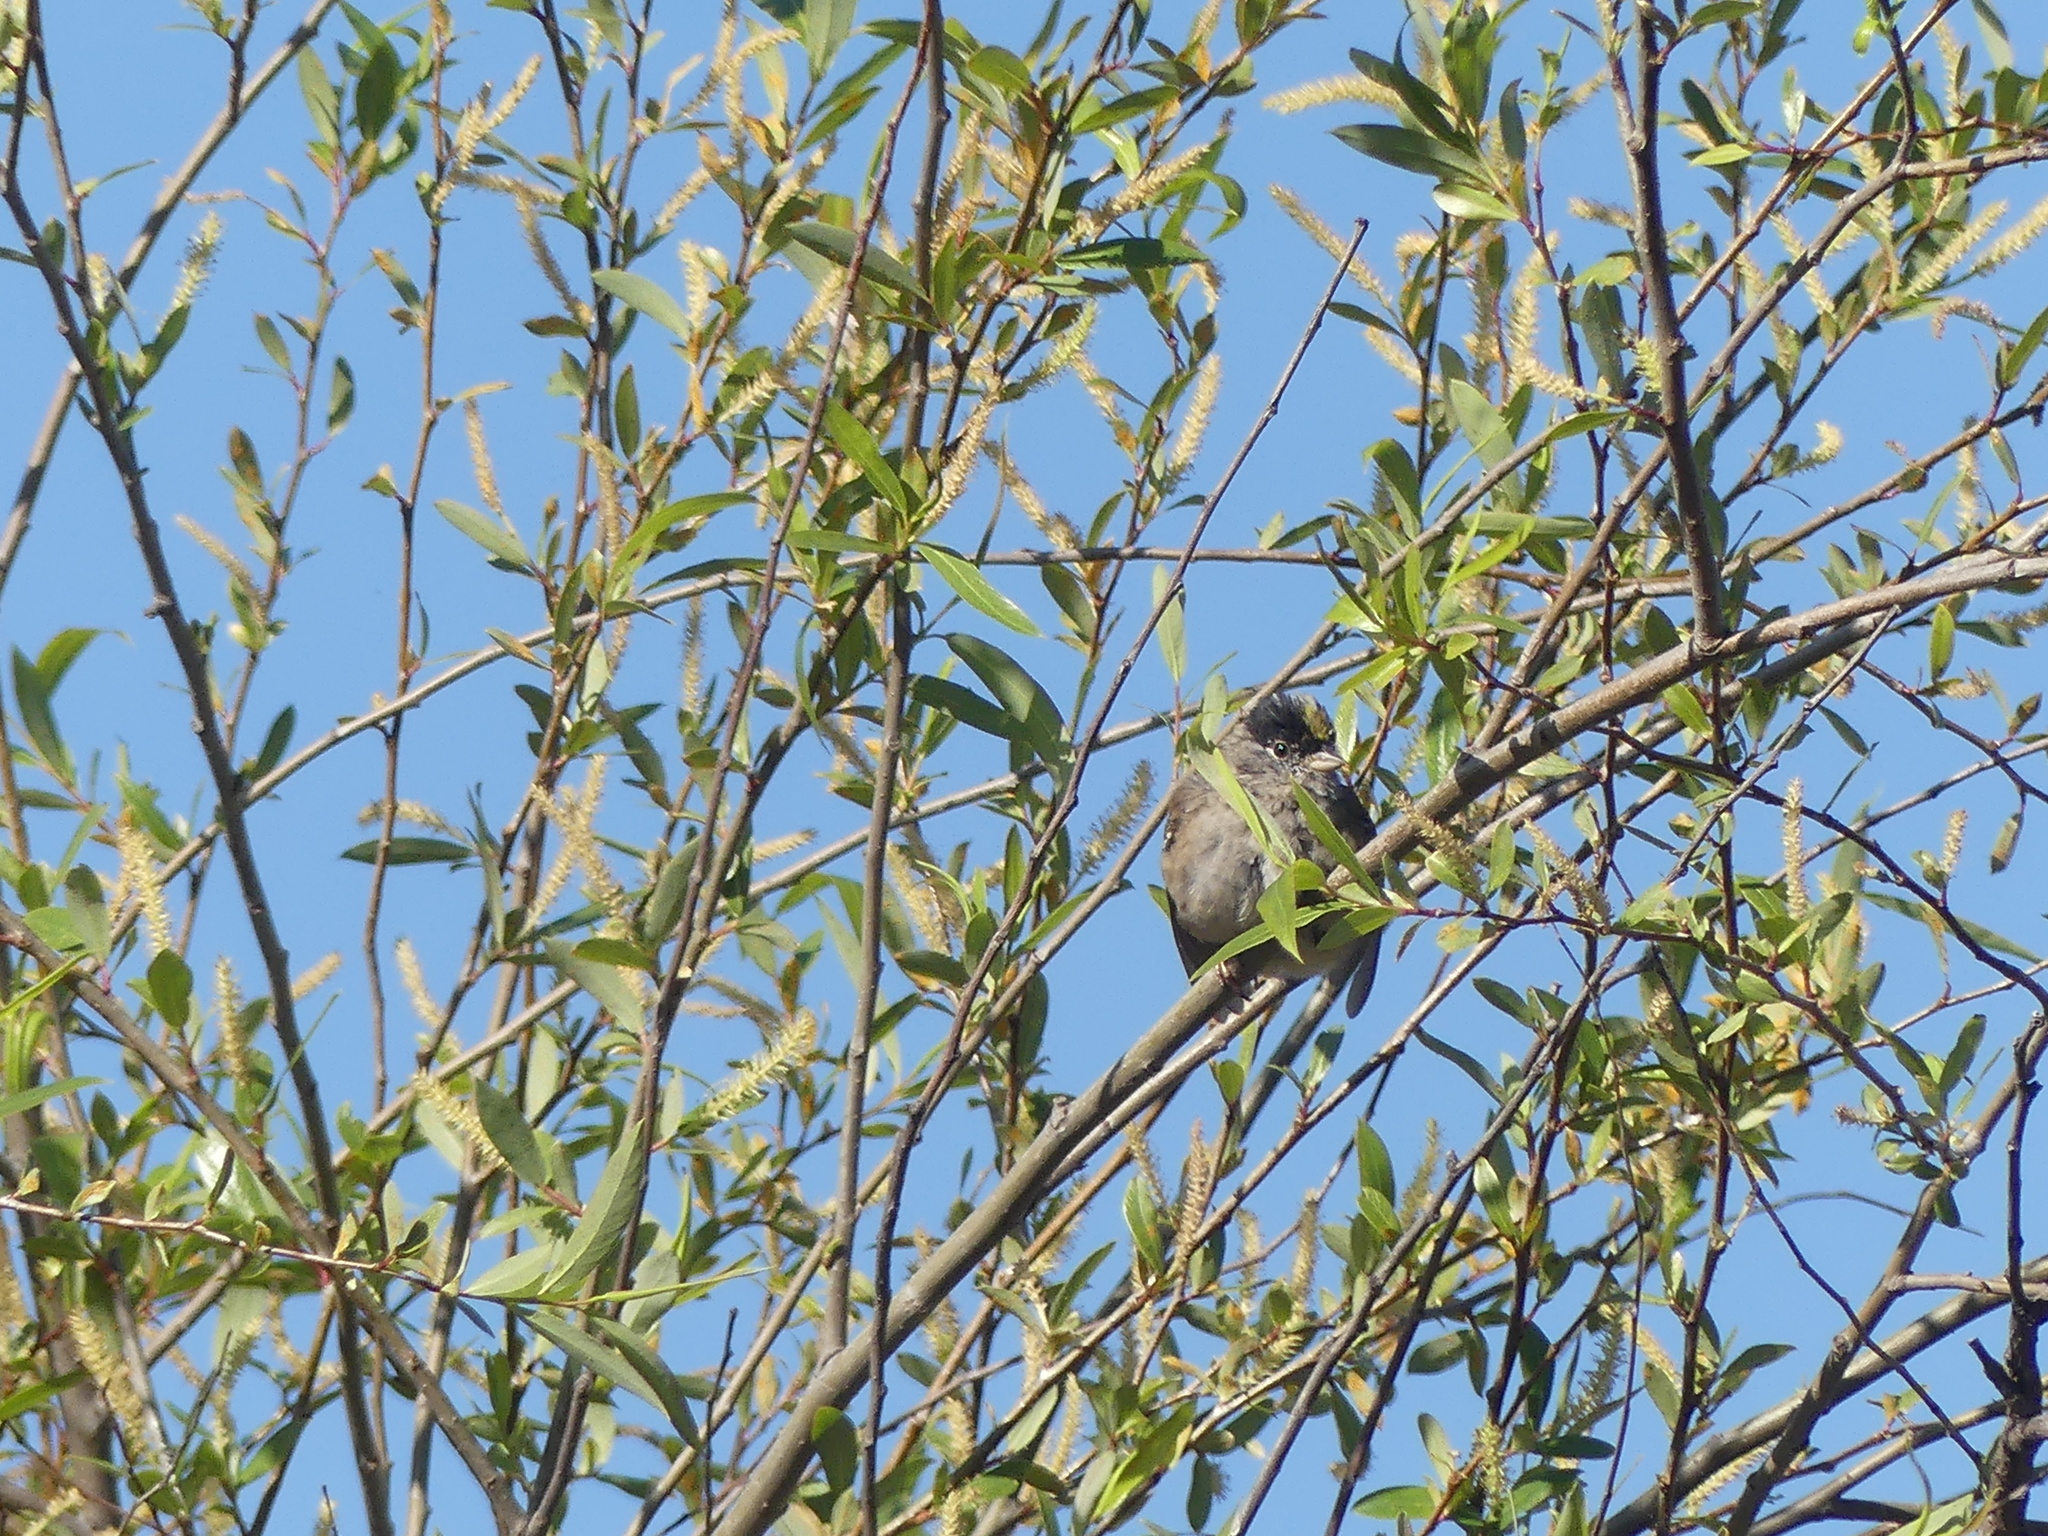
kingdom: Animalia
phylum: Chordata
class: Aves
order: Passeriformes
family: Passerellidae
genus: Zonotrichia
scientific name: Zonotrichia atricapilla
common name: Golden-crowned sparrow
